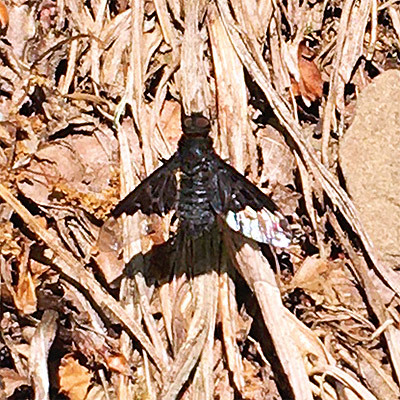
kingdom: Animalia
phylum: Arthropoda
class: Insecta
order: Diptera
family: Bombyliidae
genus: Hemipenthes
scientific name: Hemipenthes morio
